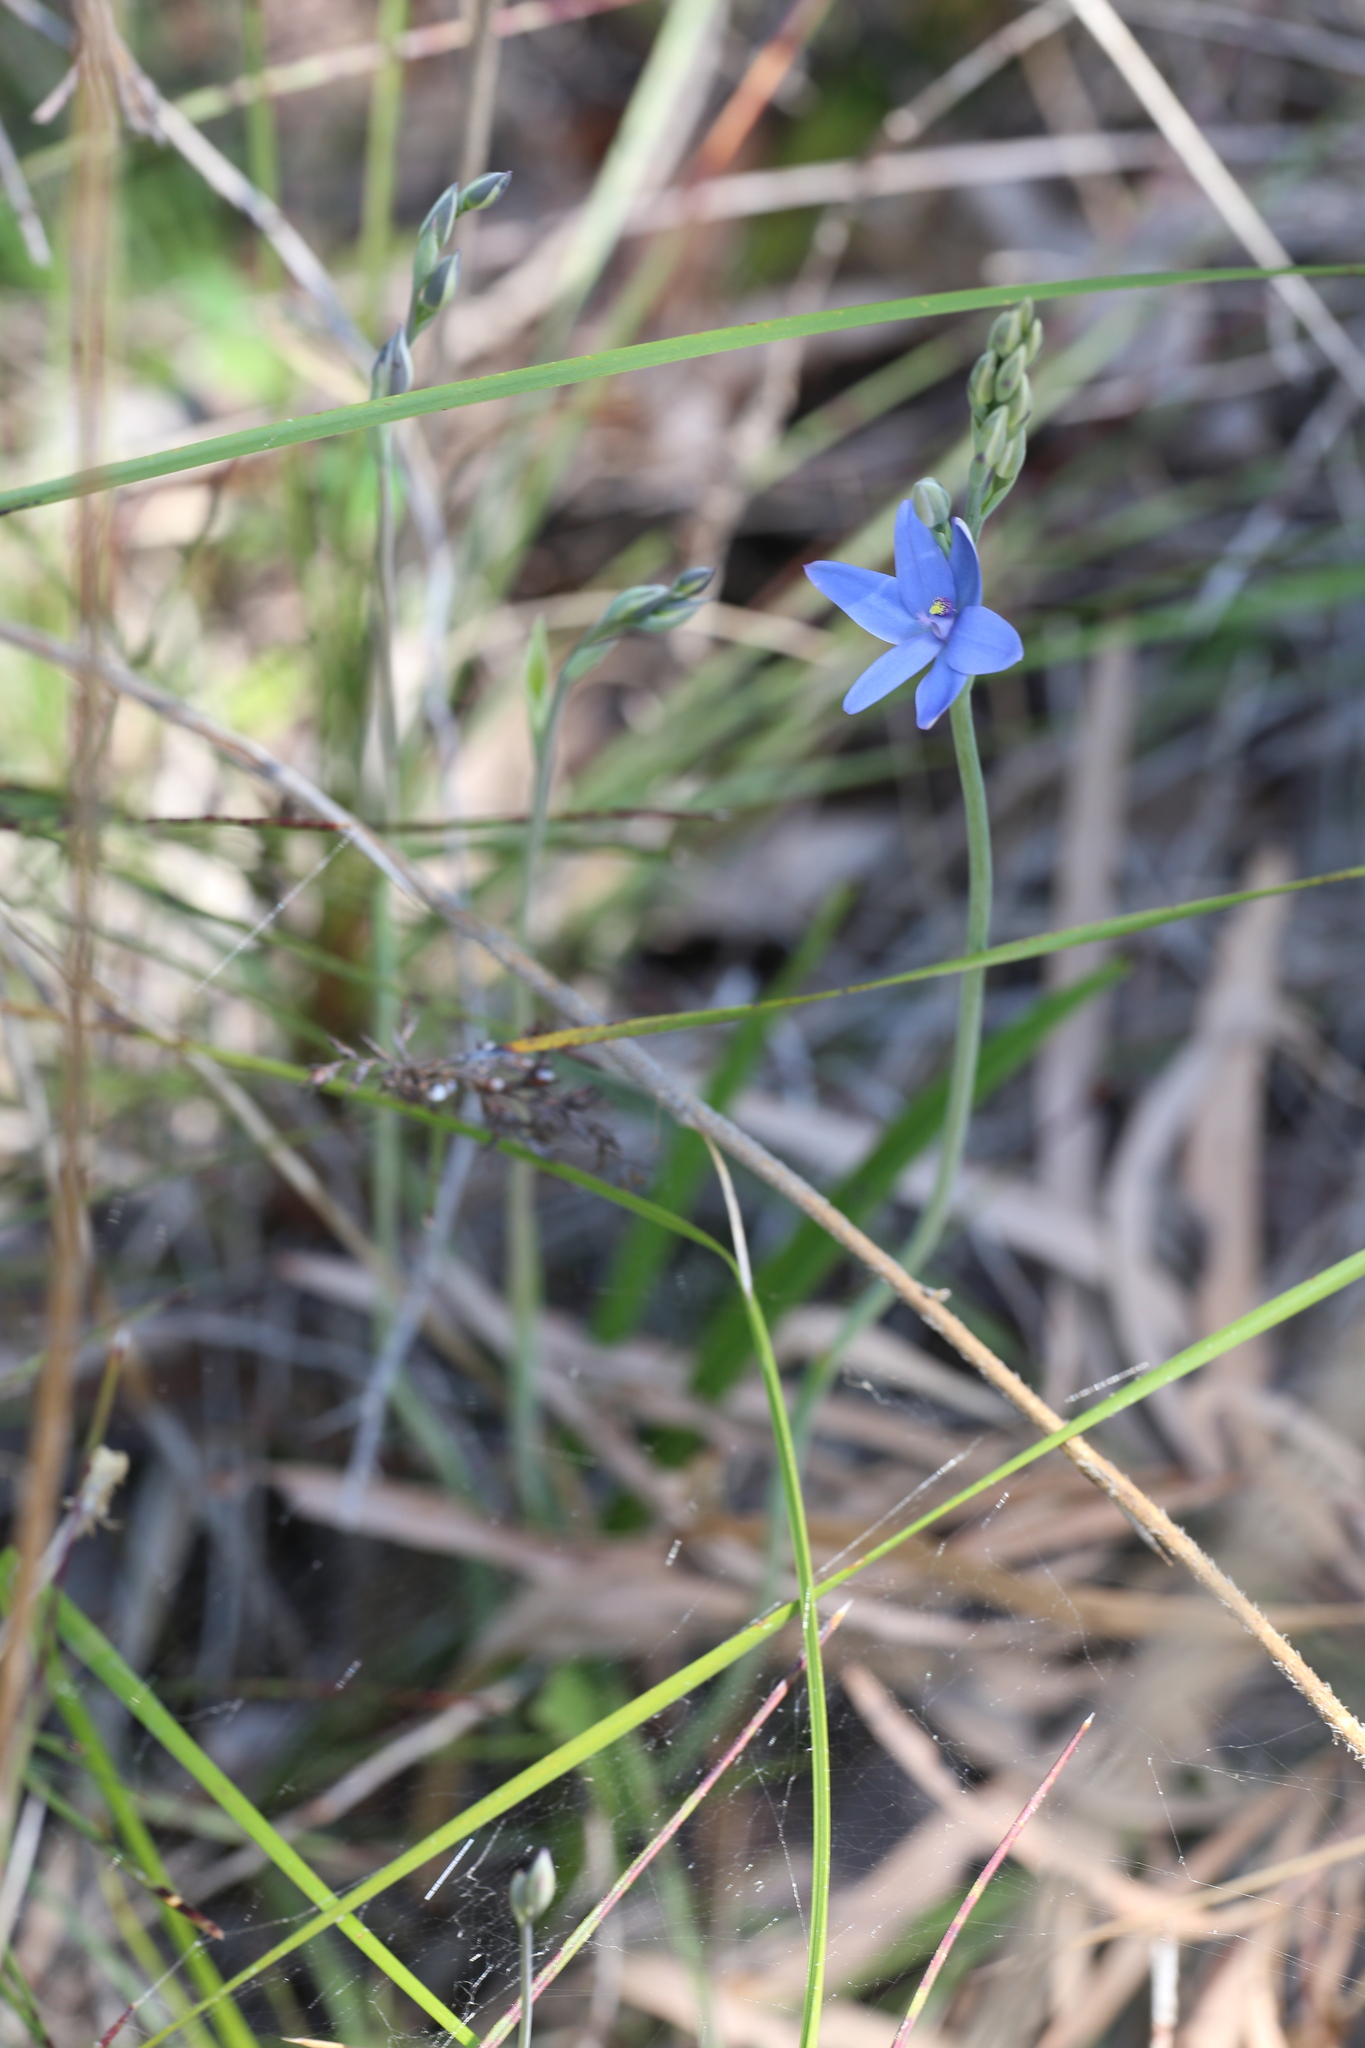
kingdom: Plantae
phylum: Tracheophyta
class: Liliopsida
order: Asparagales
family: Orchidaceae
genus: Thelymitra
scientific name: Thelymitra crinita
